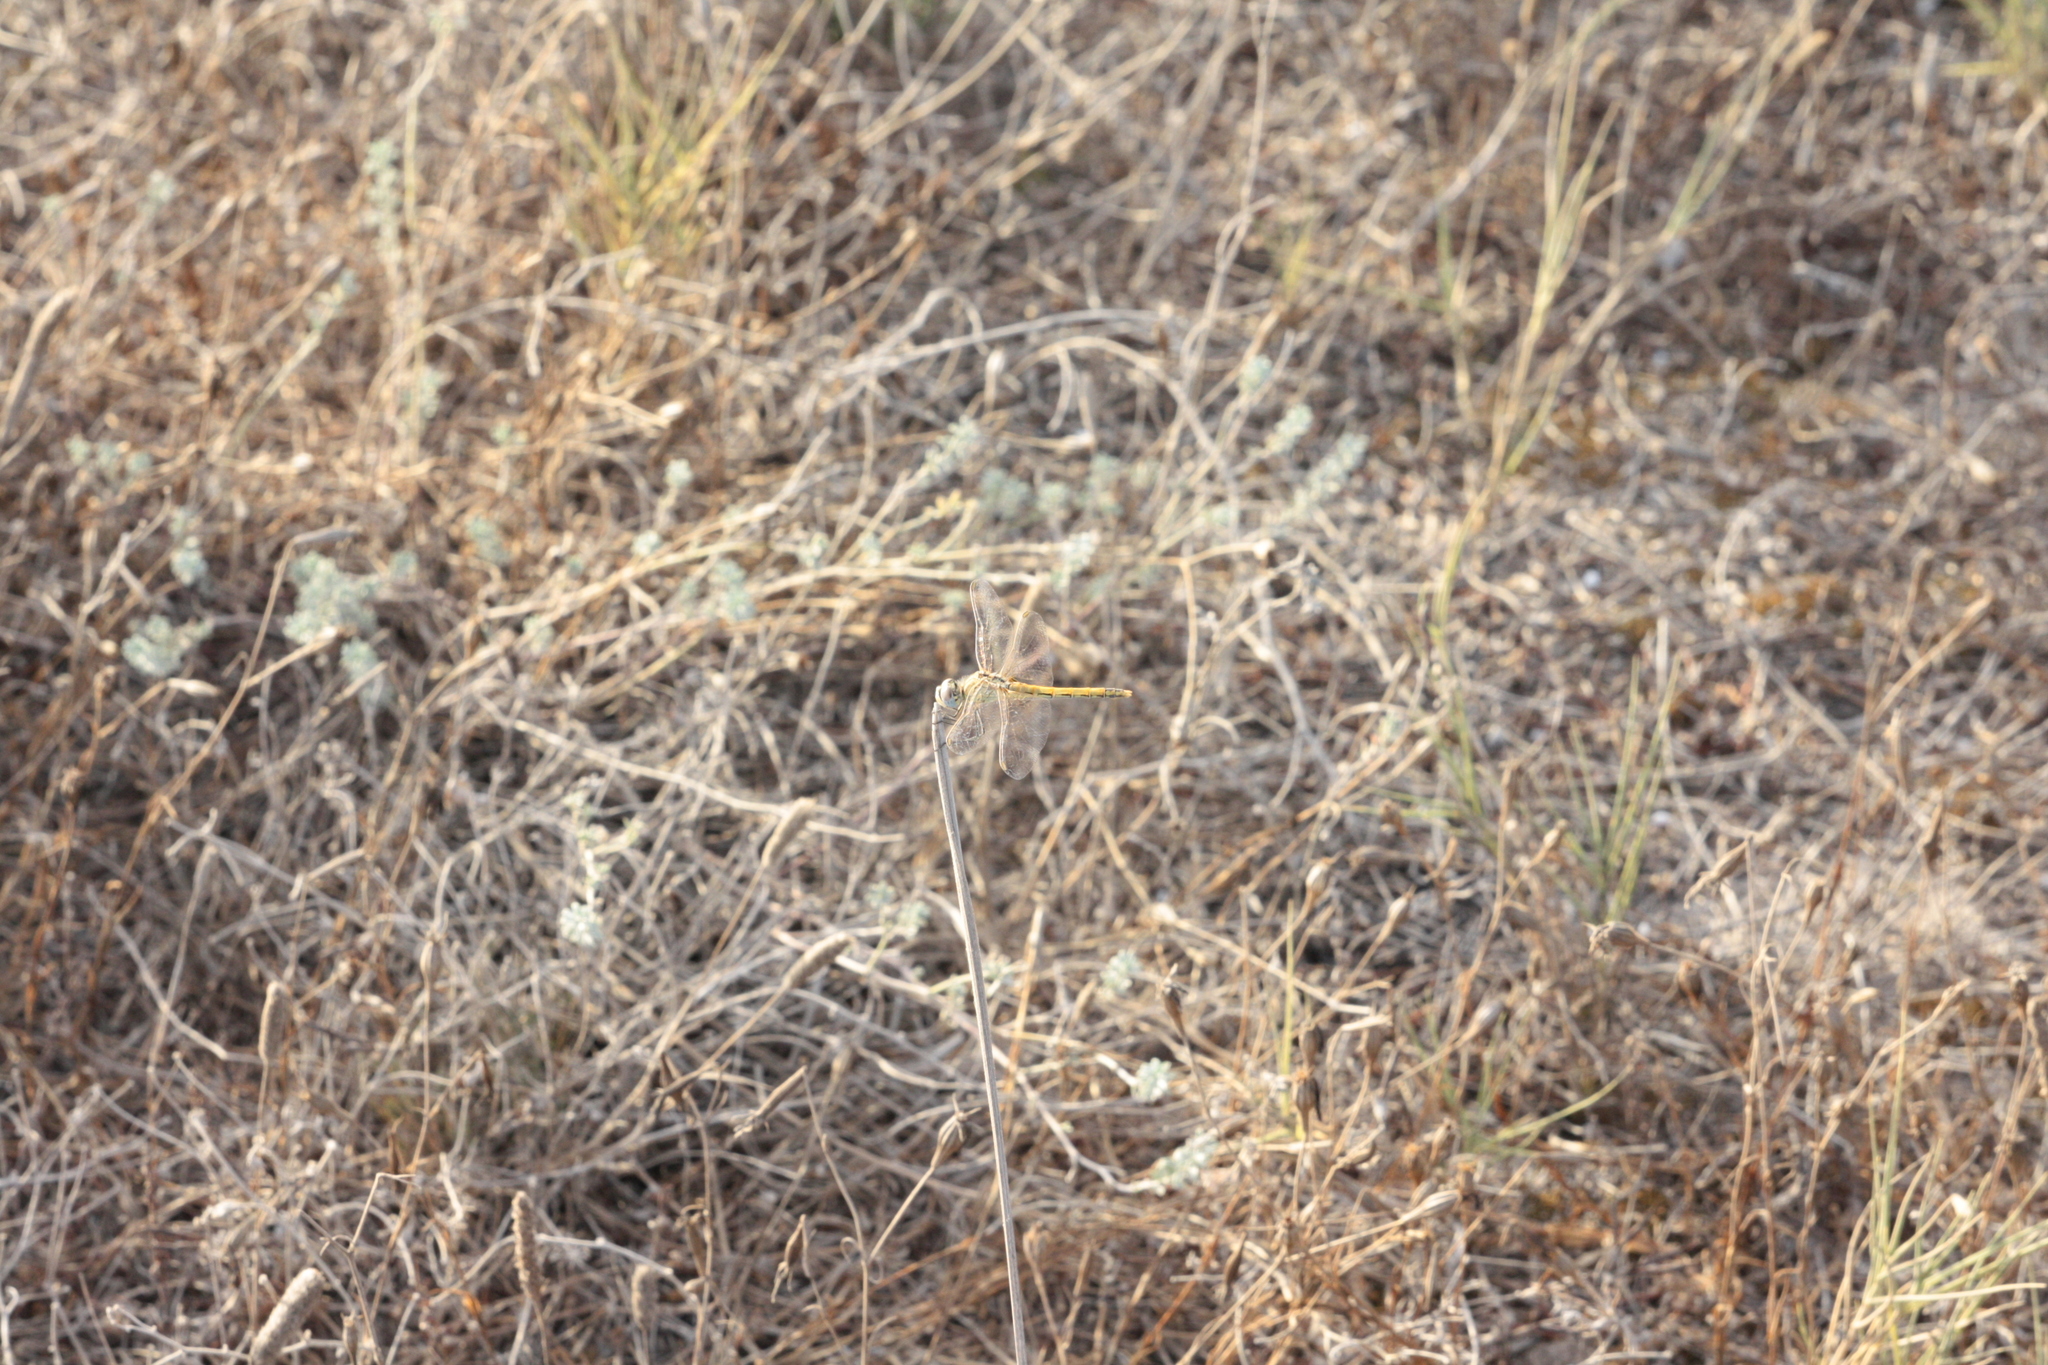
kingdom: Animalia
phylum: Arthropoda
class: Insecta
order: Odonata
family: Libellulidae
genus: Sympetrum
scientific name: Sympetrum fonscolombii
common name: Red-veined darter
